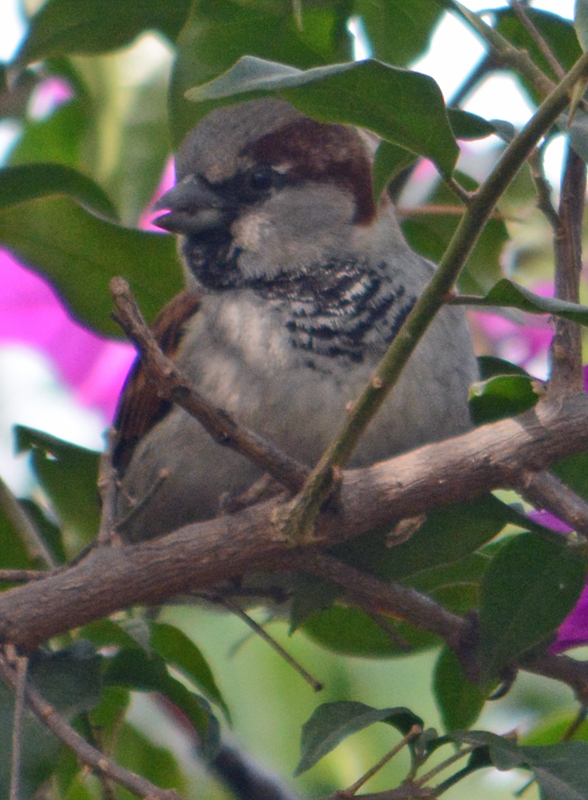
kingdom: Animalia
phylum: Chordata
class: Aves
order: Passeriformes
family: Passeridae
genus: Passer
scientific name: Passer domesticus
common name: House sparrow
